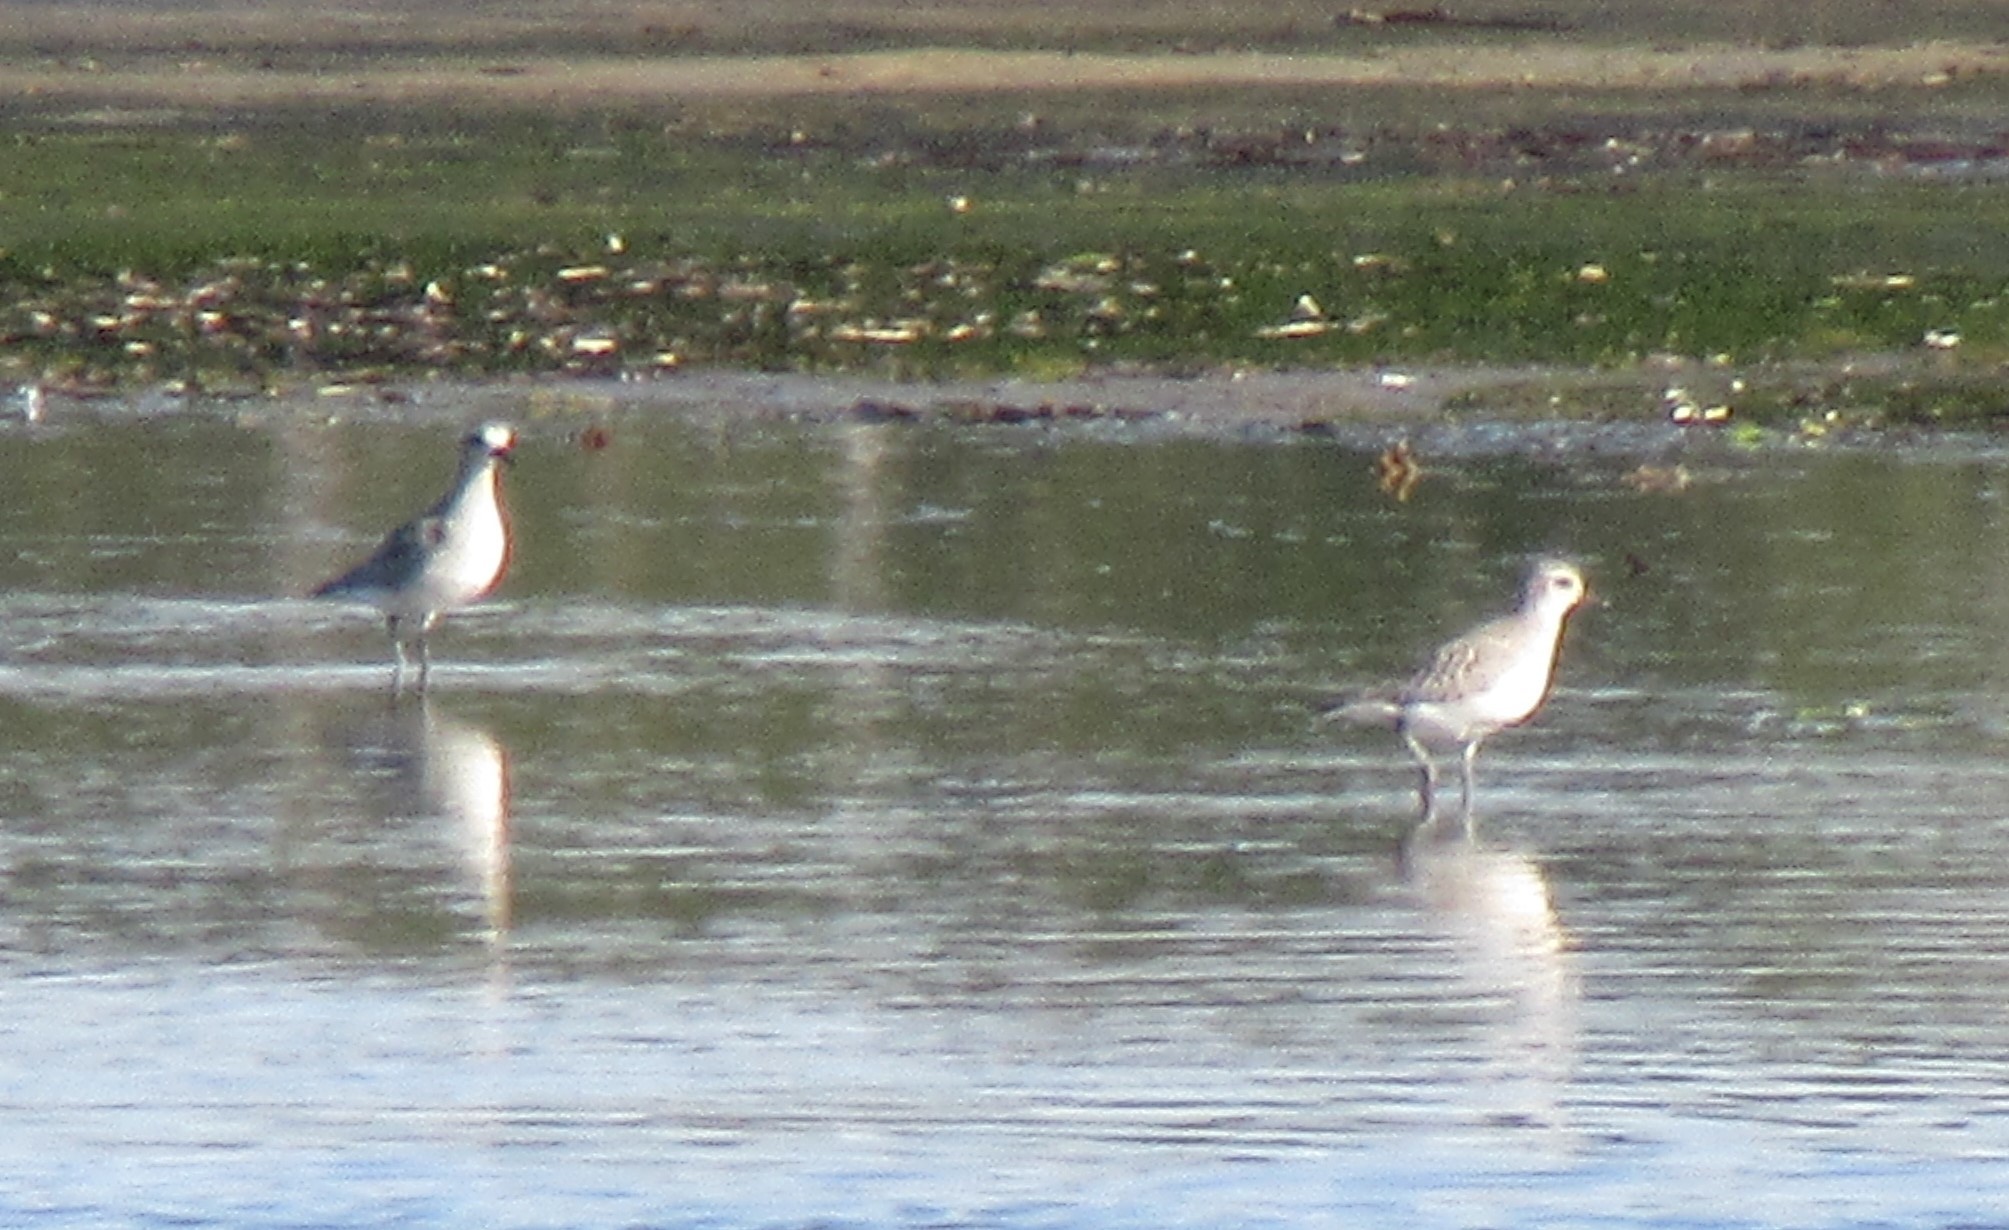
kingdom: Animalia
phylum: Chordata
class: Aves
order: Charadriiformes
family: Charadriidae
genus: Pluvialis
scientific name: Pluvialis squatarola
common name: Grey plover
